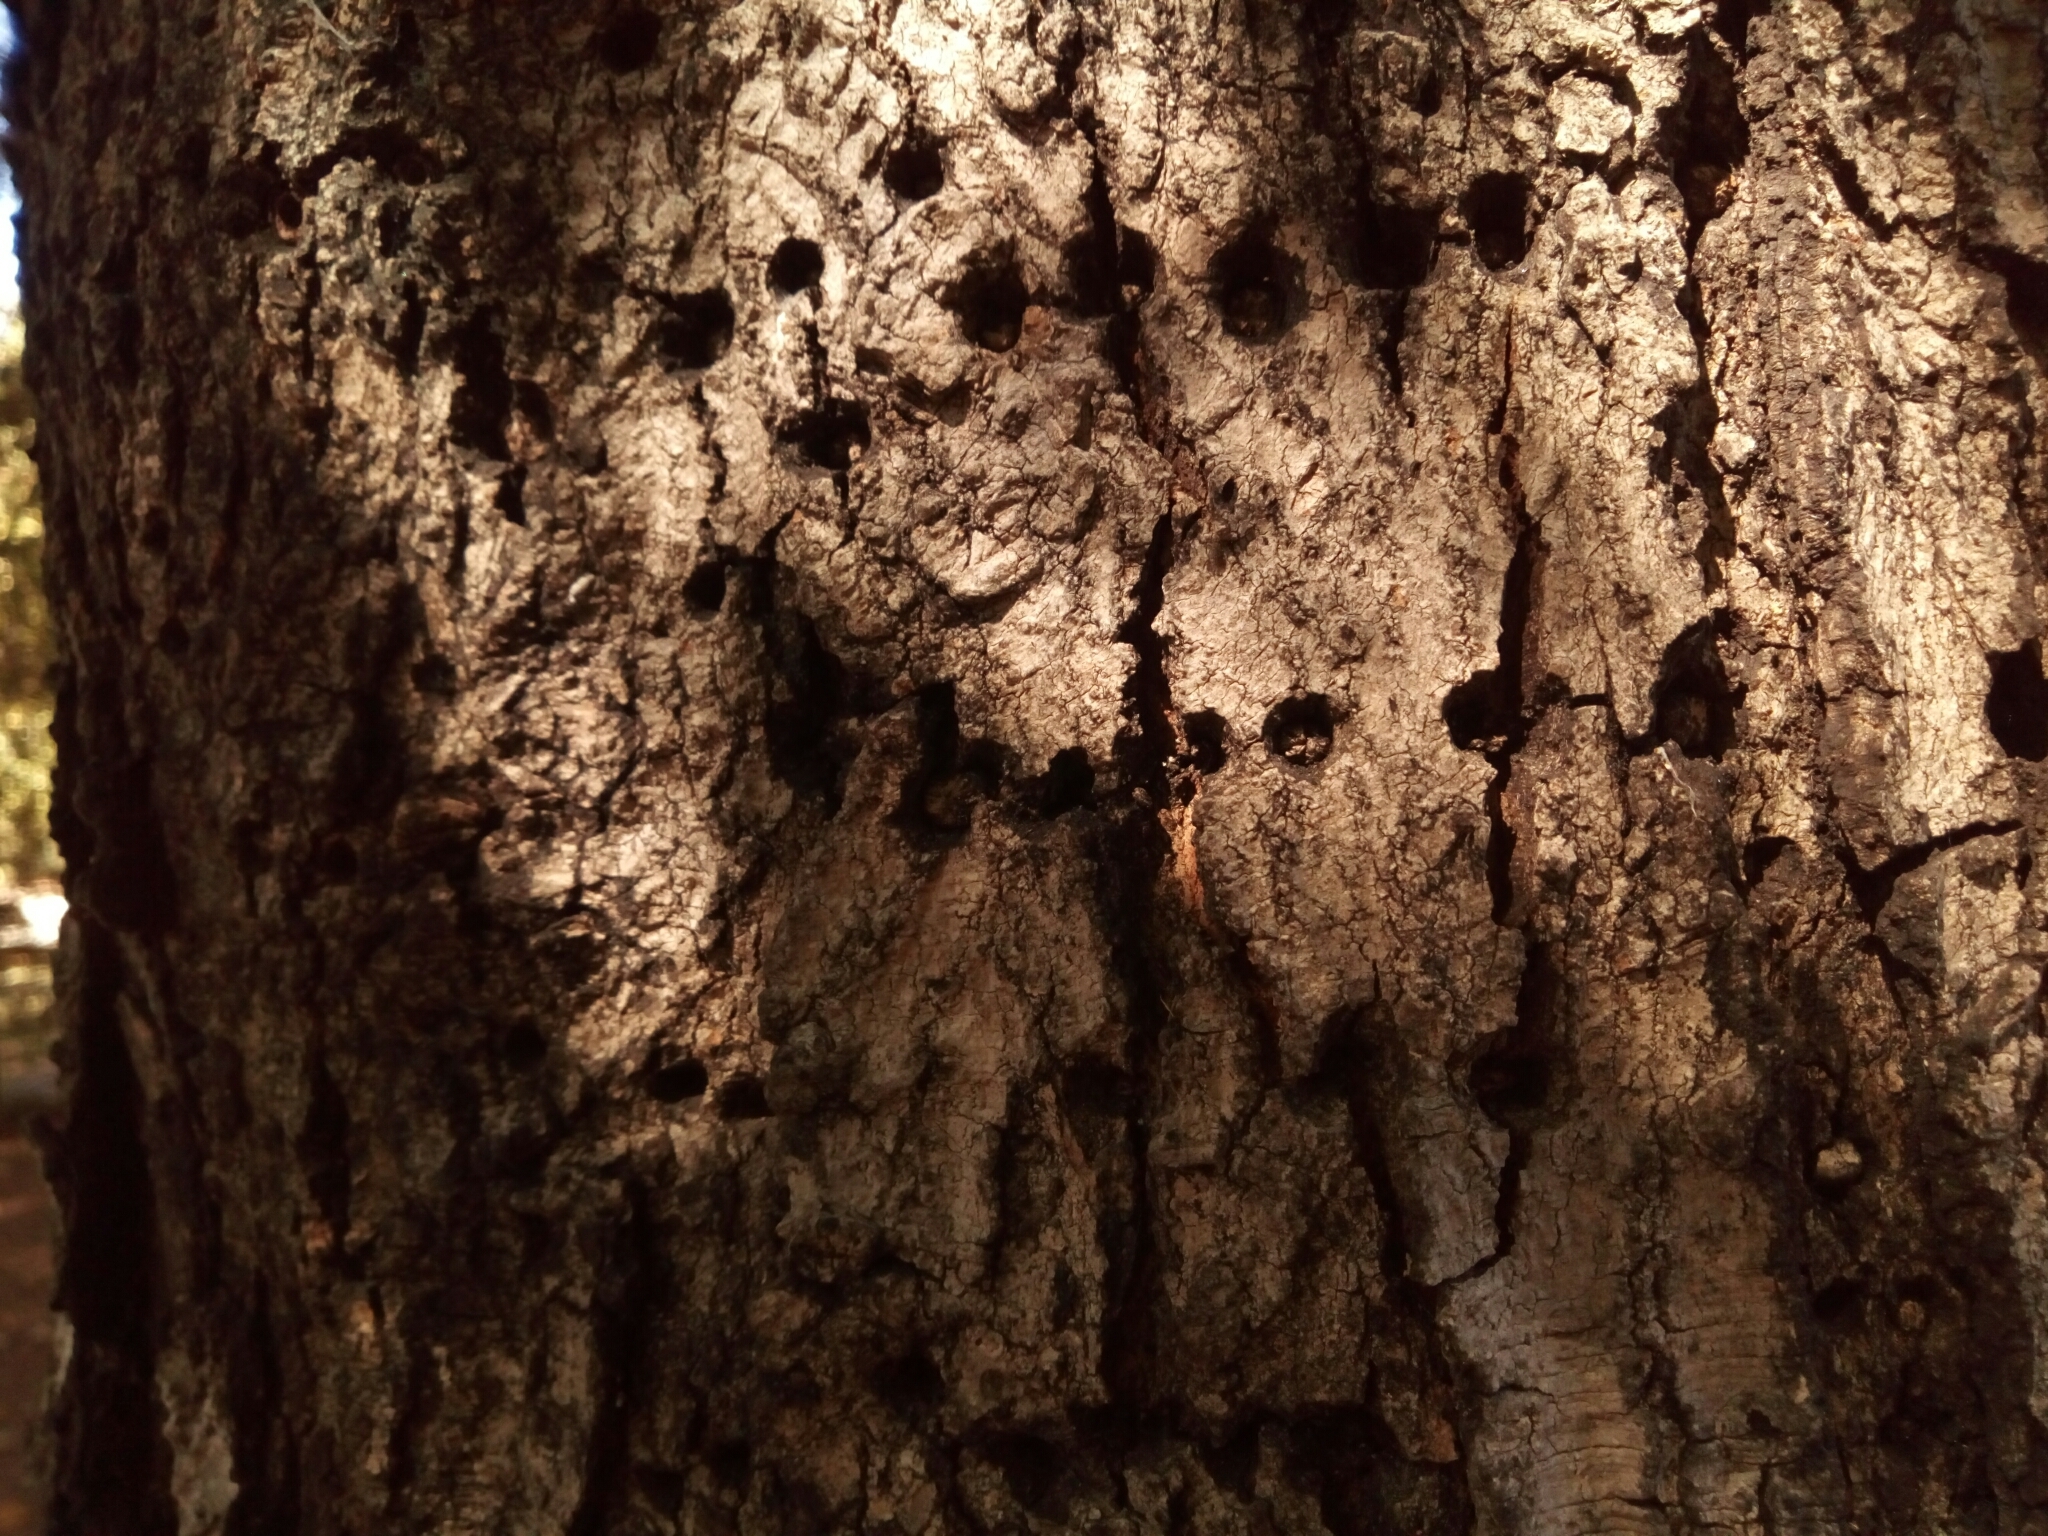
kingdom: Animalia
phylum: Chordata
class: Aves
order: Piciformes
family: Picidae
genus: Sphyrapicus
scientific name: Sphyrapicus varius
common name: Yellow-bellied sapsucker
